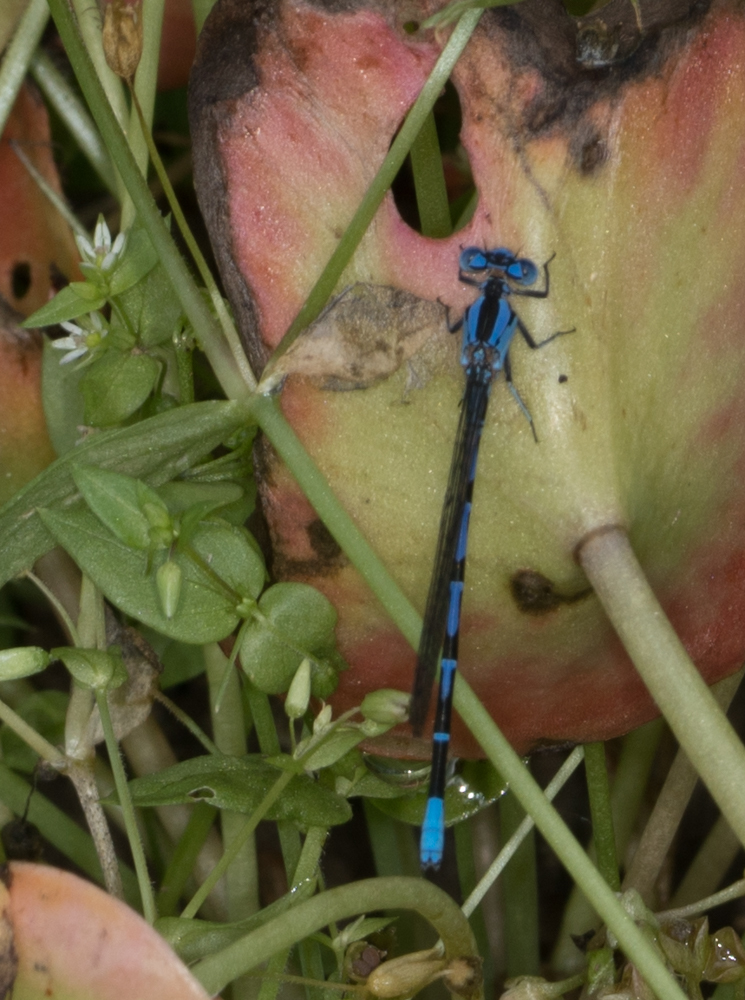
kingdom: Animalia
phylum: Arthropoda
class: Insecta
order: Odonata
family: Coenagrionidae
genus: Argia
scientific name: Argia vivida
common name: Vivid dancer
